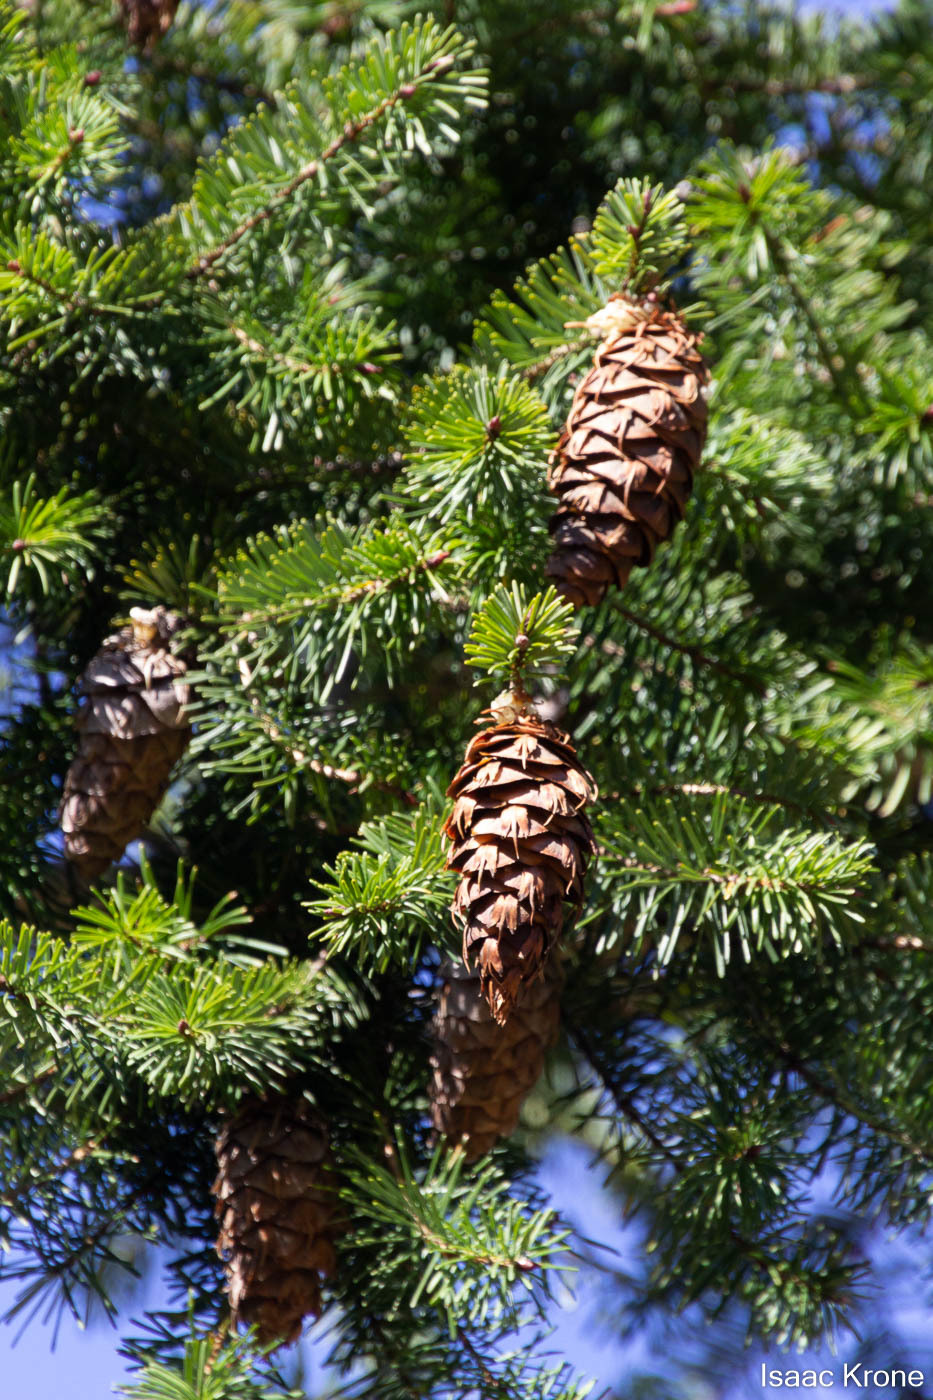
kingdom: Plantae
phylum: Tracheophyta
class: Pinopsida
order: Pinales
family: Pinaceae
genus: Pseudotsuga
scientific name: Pseudotsuga menziesii
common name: Douglas fir
